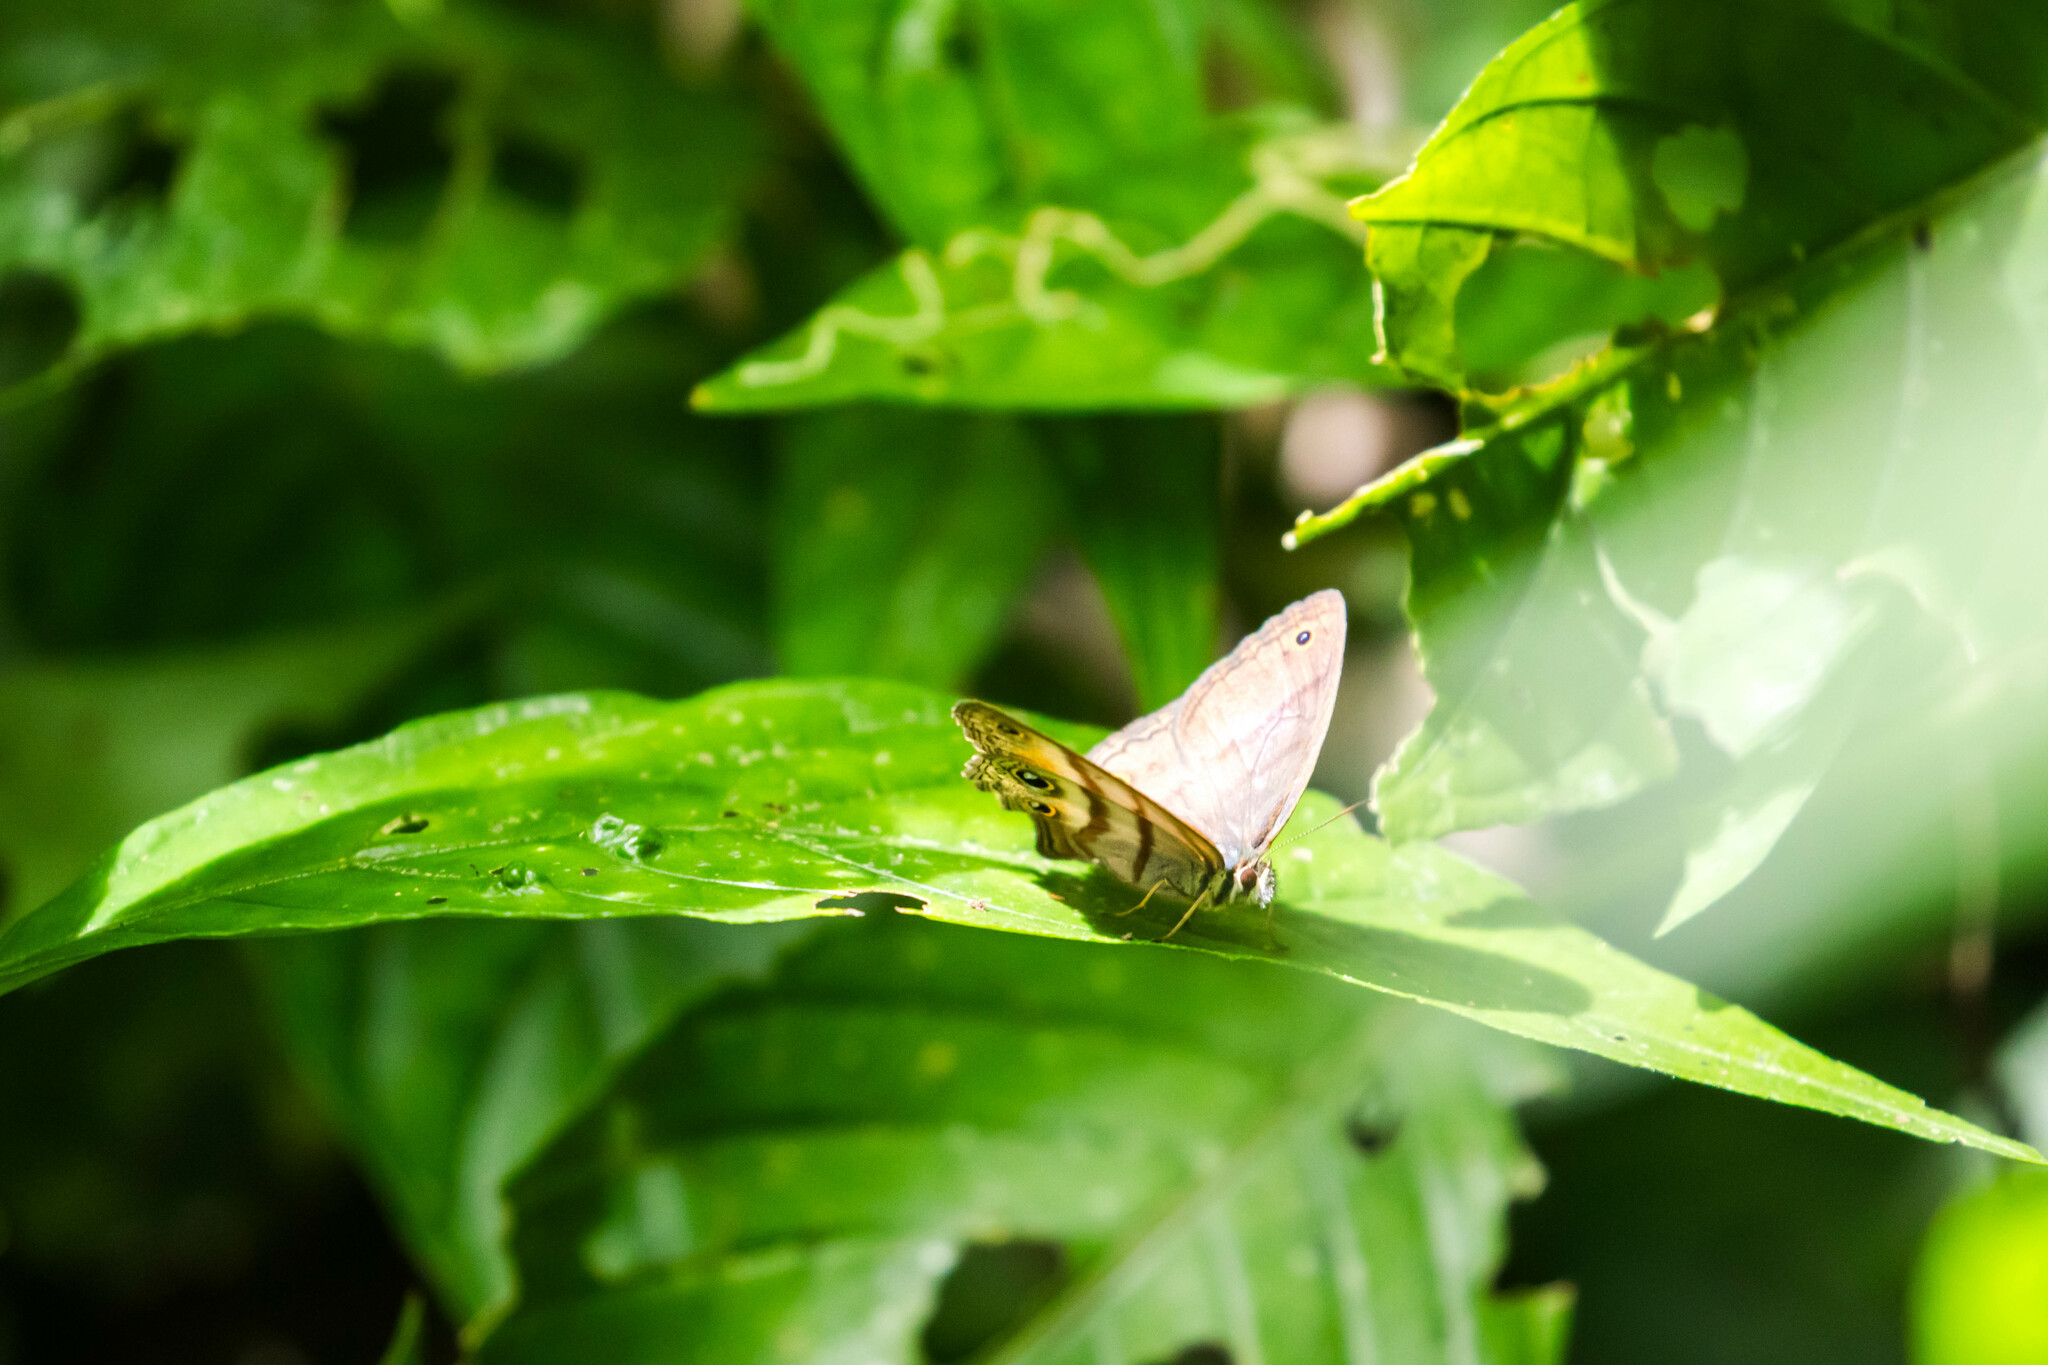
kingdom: Animalia
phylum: Arthropoda
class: Insecta
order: Lepidoptera
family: Nymphalidae
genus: Argyreuptychia
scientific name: Argyreuptychia penelope
